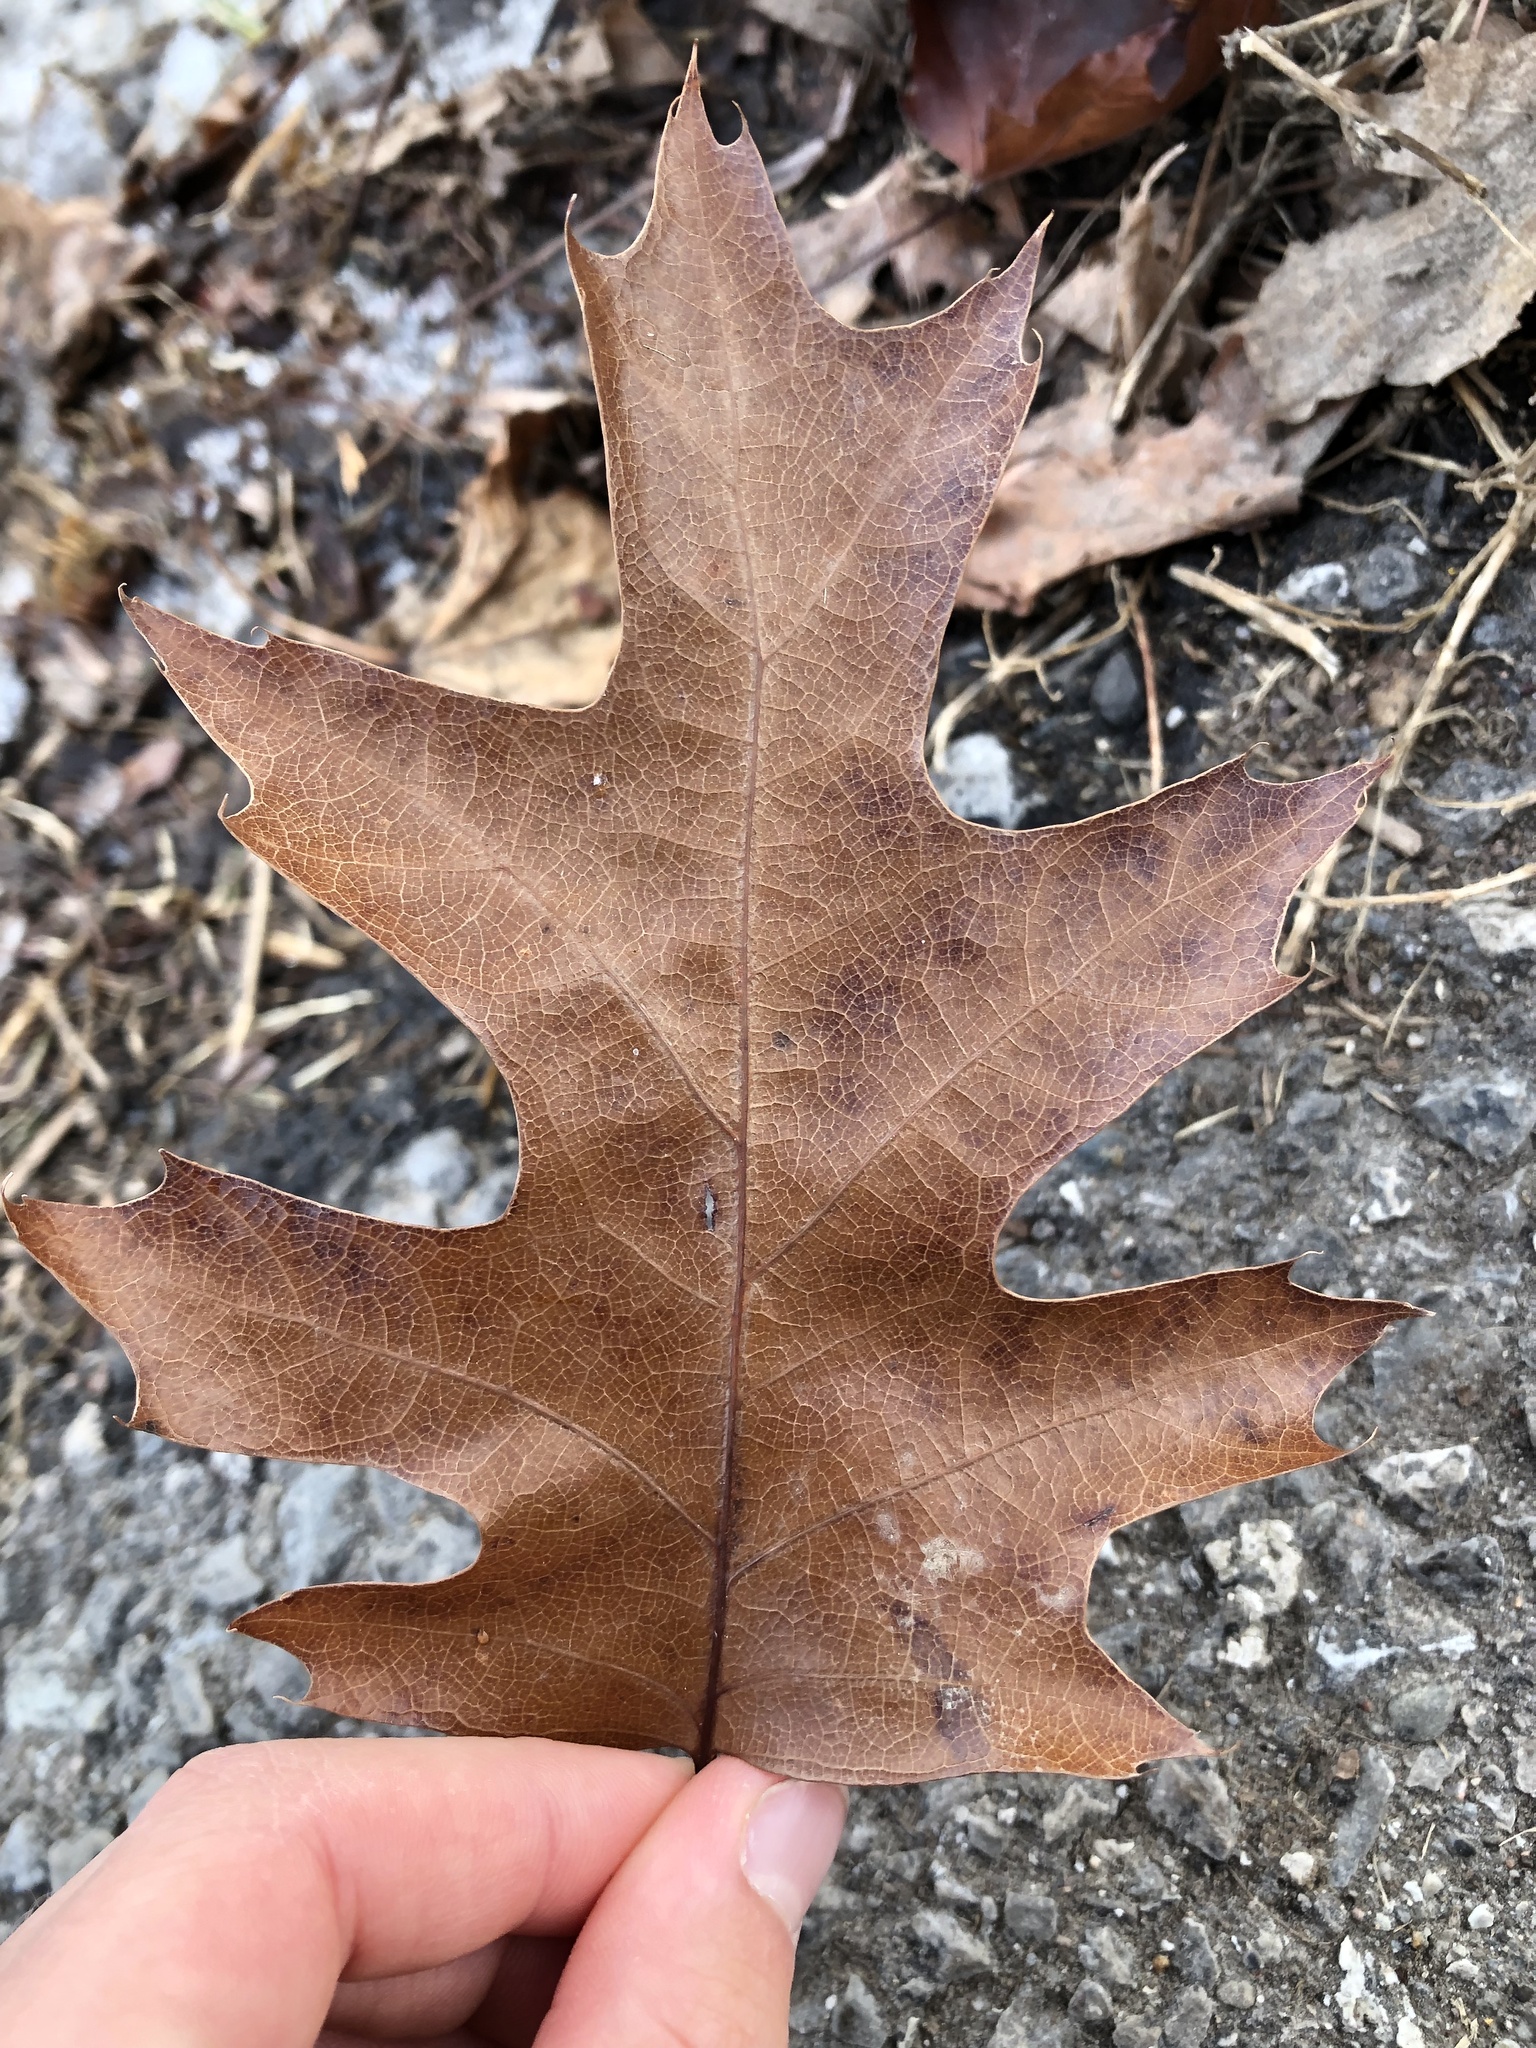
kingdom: Plantae
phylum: Tracheophyta
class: Magnoliopsida
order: Fagales
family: Fagaceae
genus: Quercus
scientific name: Quercus rubra
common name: Red oak
